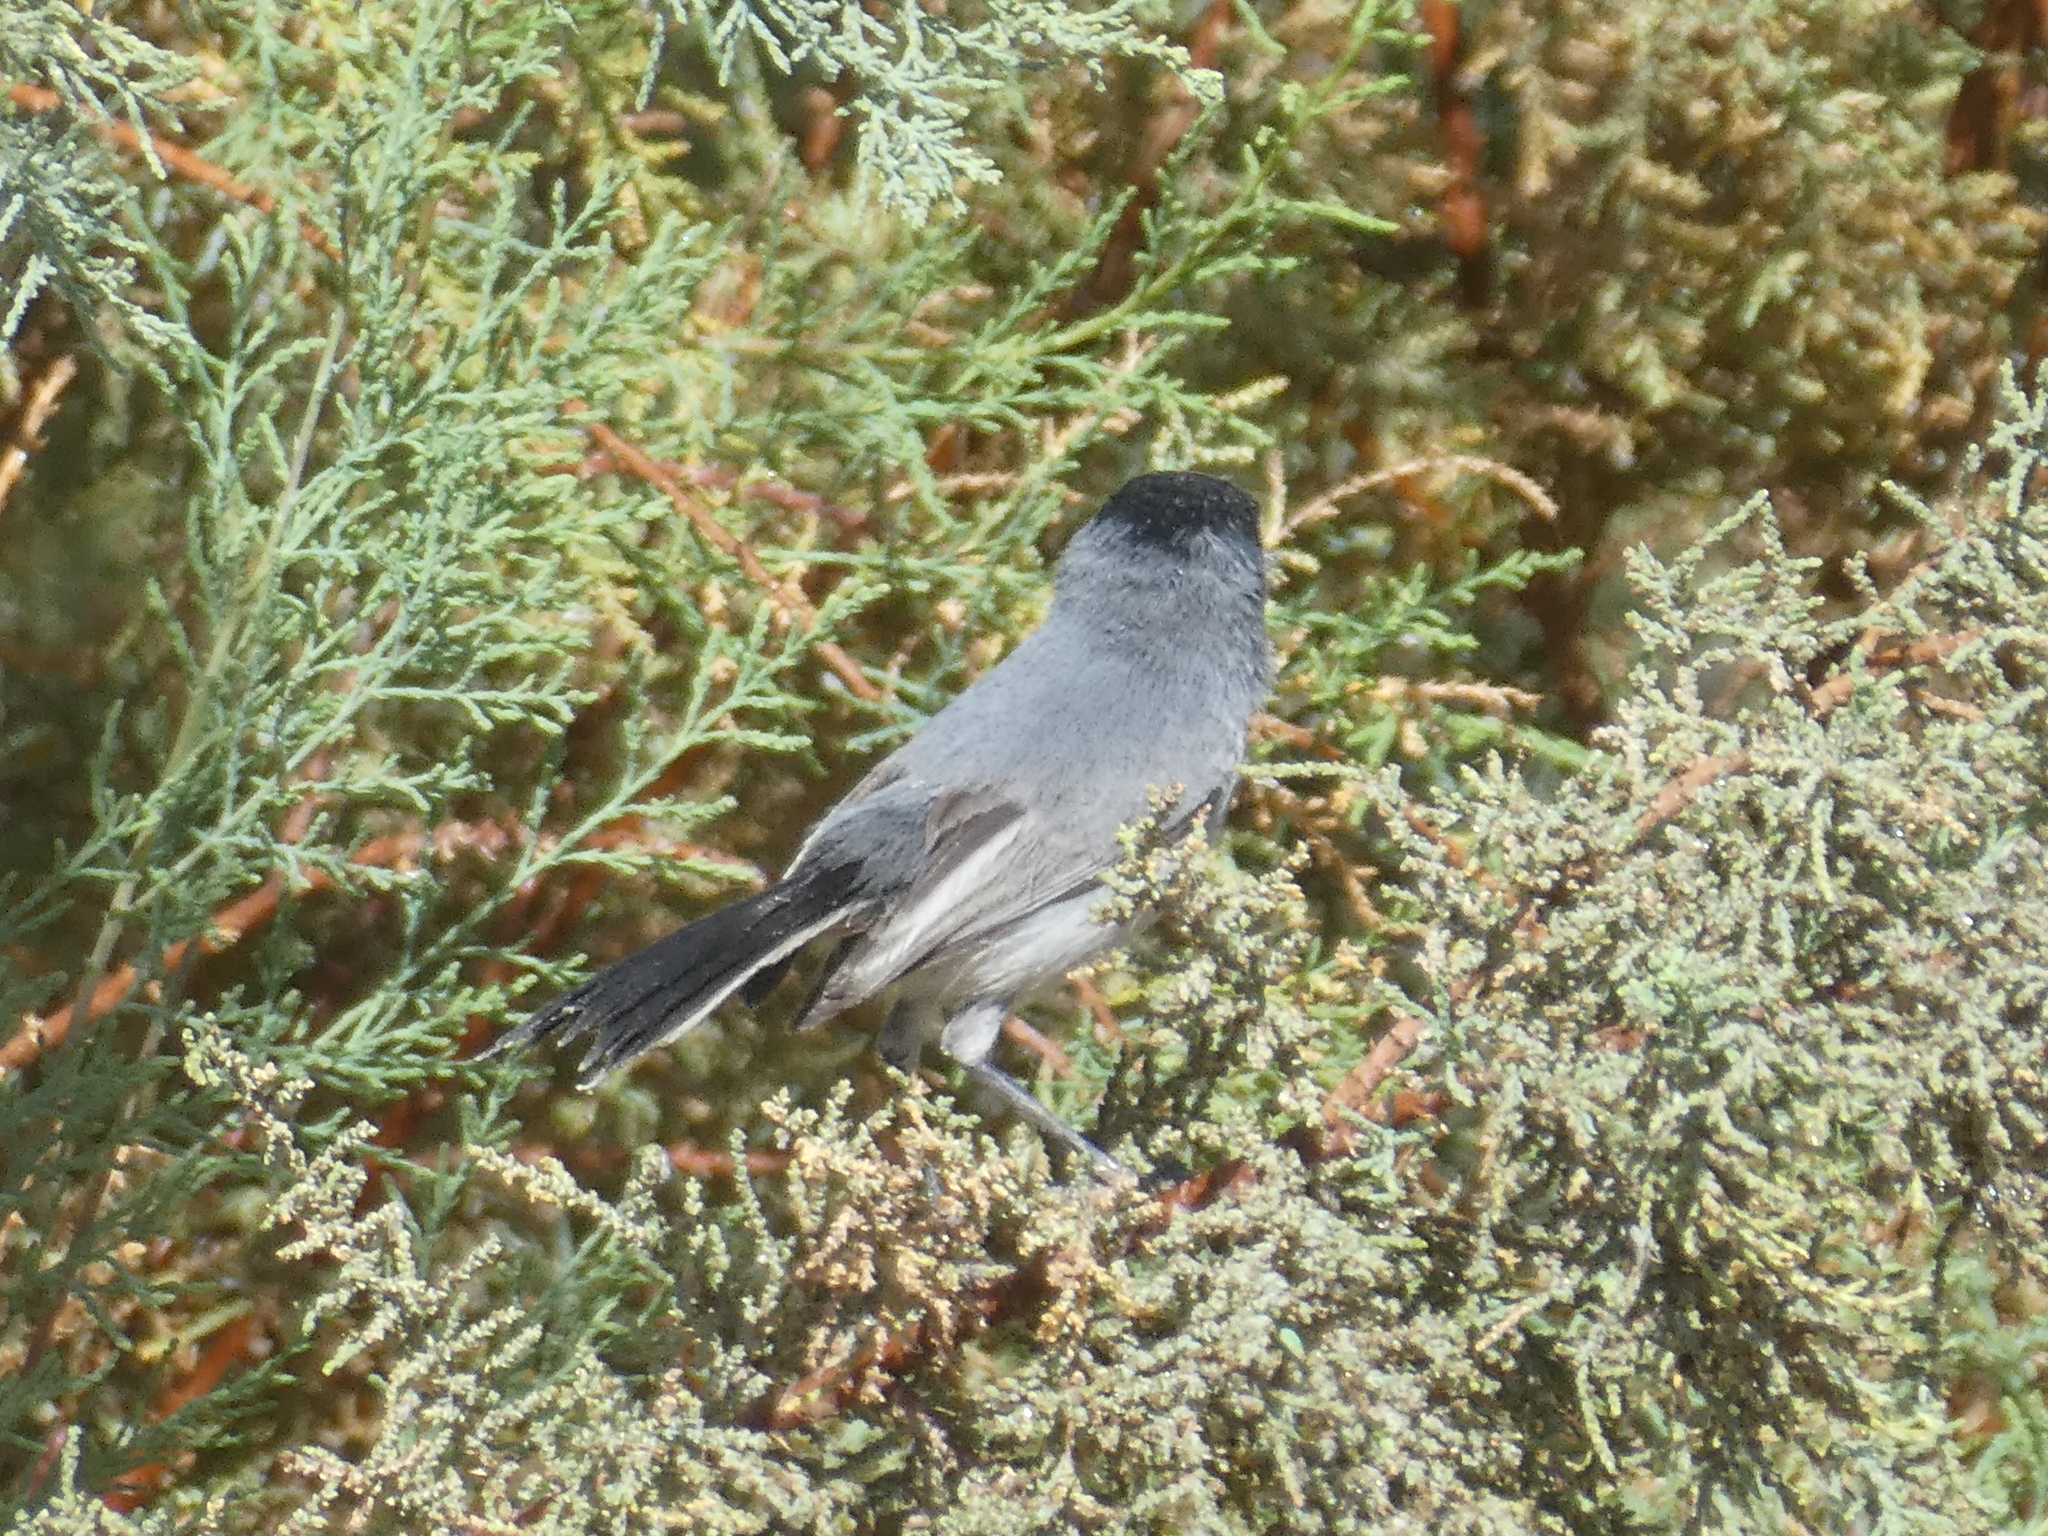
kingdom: Animalia
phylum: Chordata
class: Aves
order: Passeriformes
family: Polioptilidae
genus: Polioptila
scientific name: Polioptila melanura
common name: Black-tailed gnatcatcher
